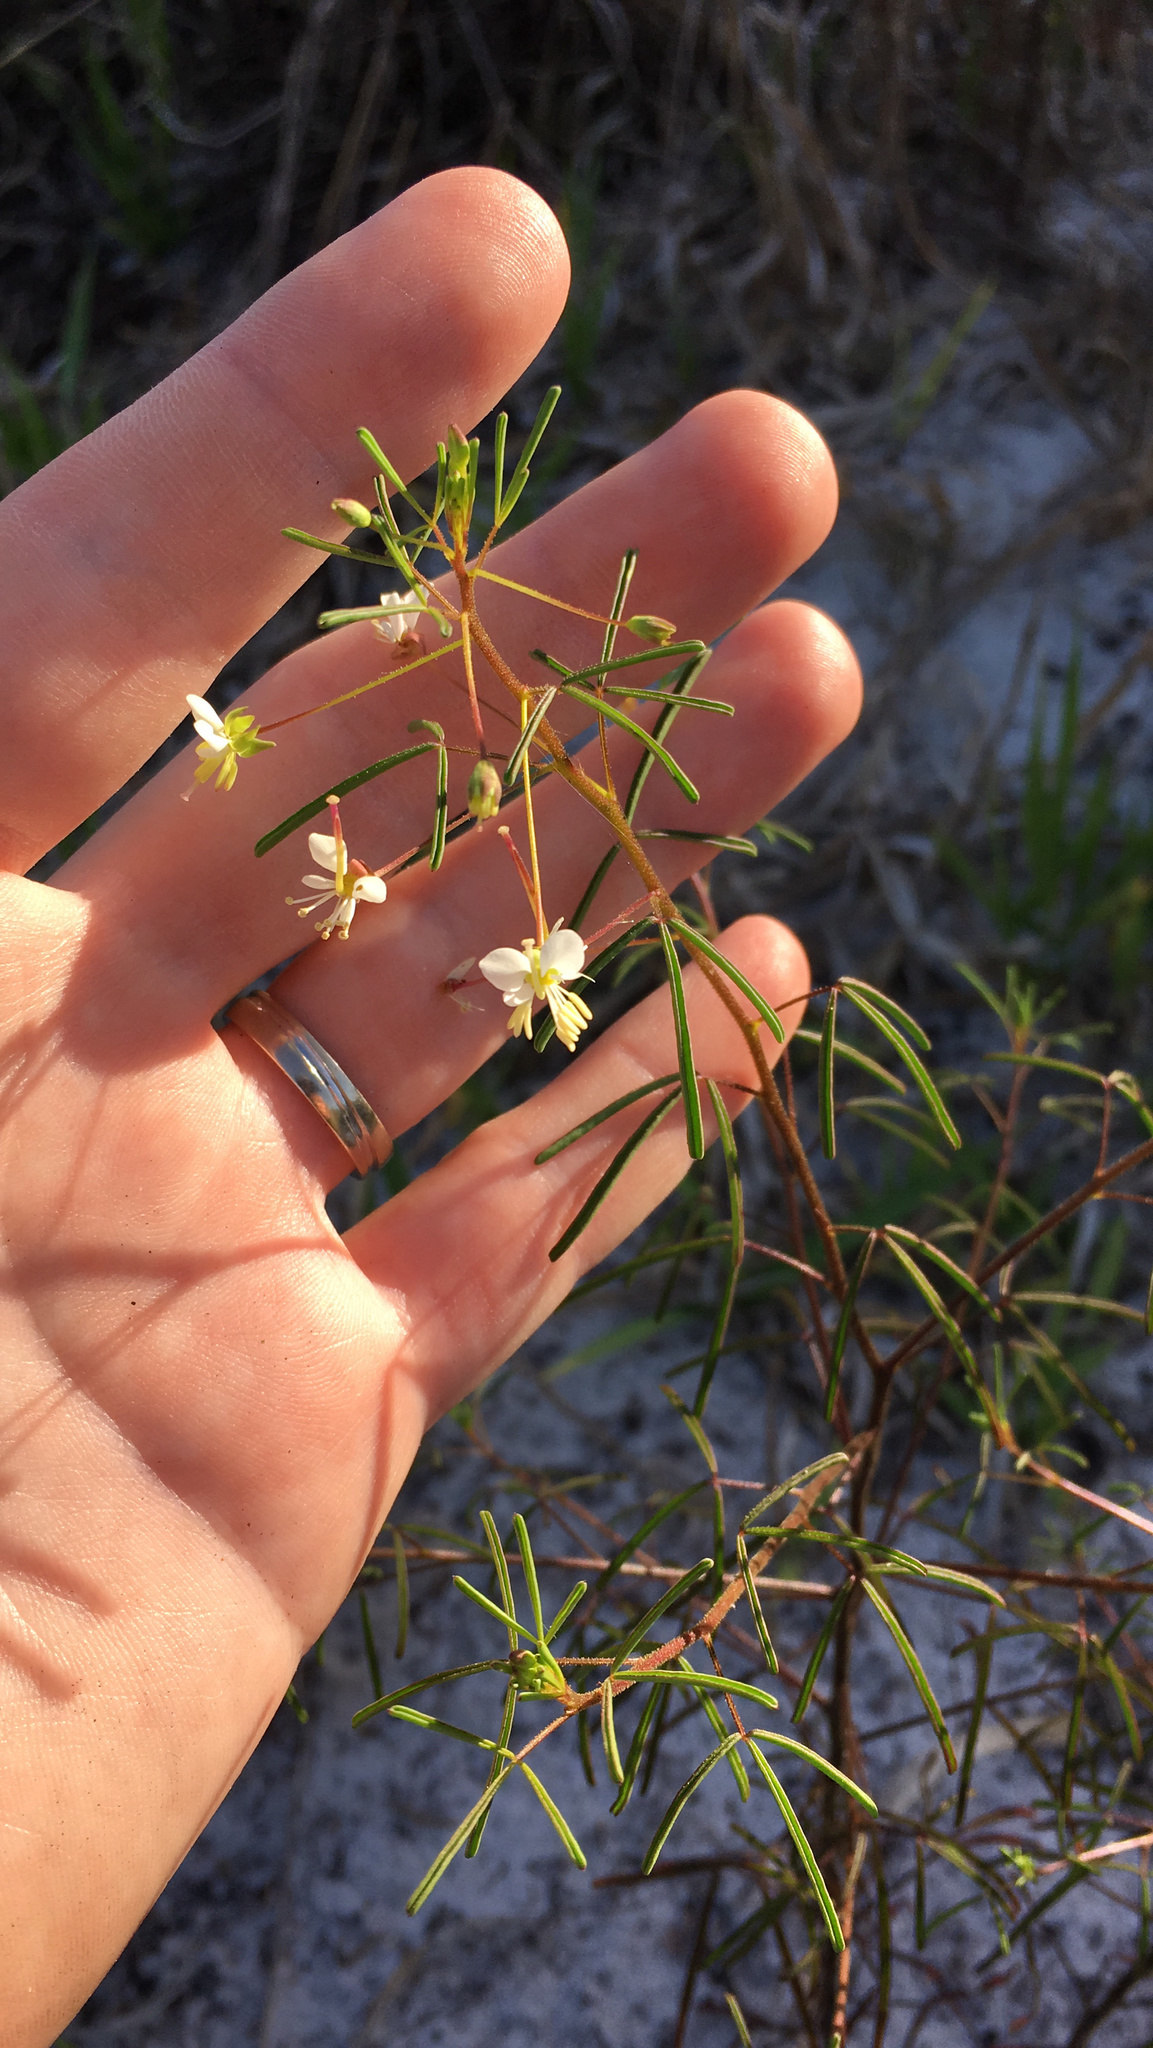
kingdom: Plantae
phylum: Tracheophyta
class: Magnoliopsida
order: Brassicales
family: Cleomaceae
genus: Polanisia
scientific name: Polanisia tenuifolia
